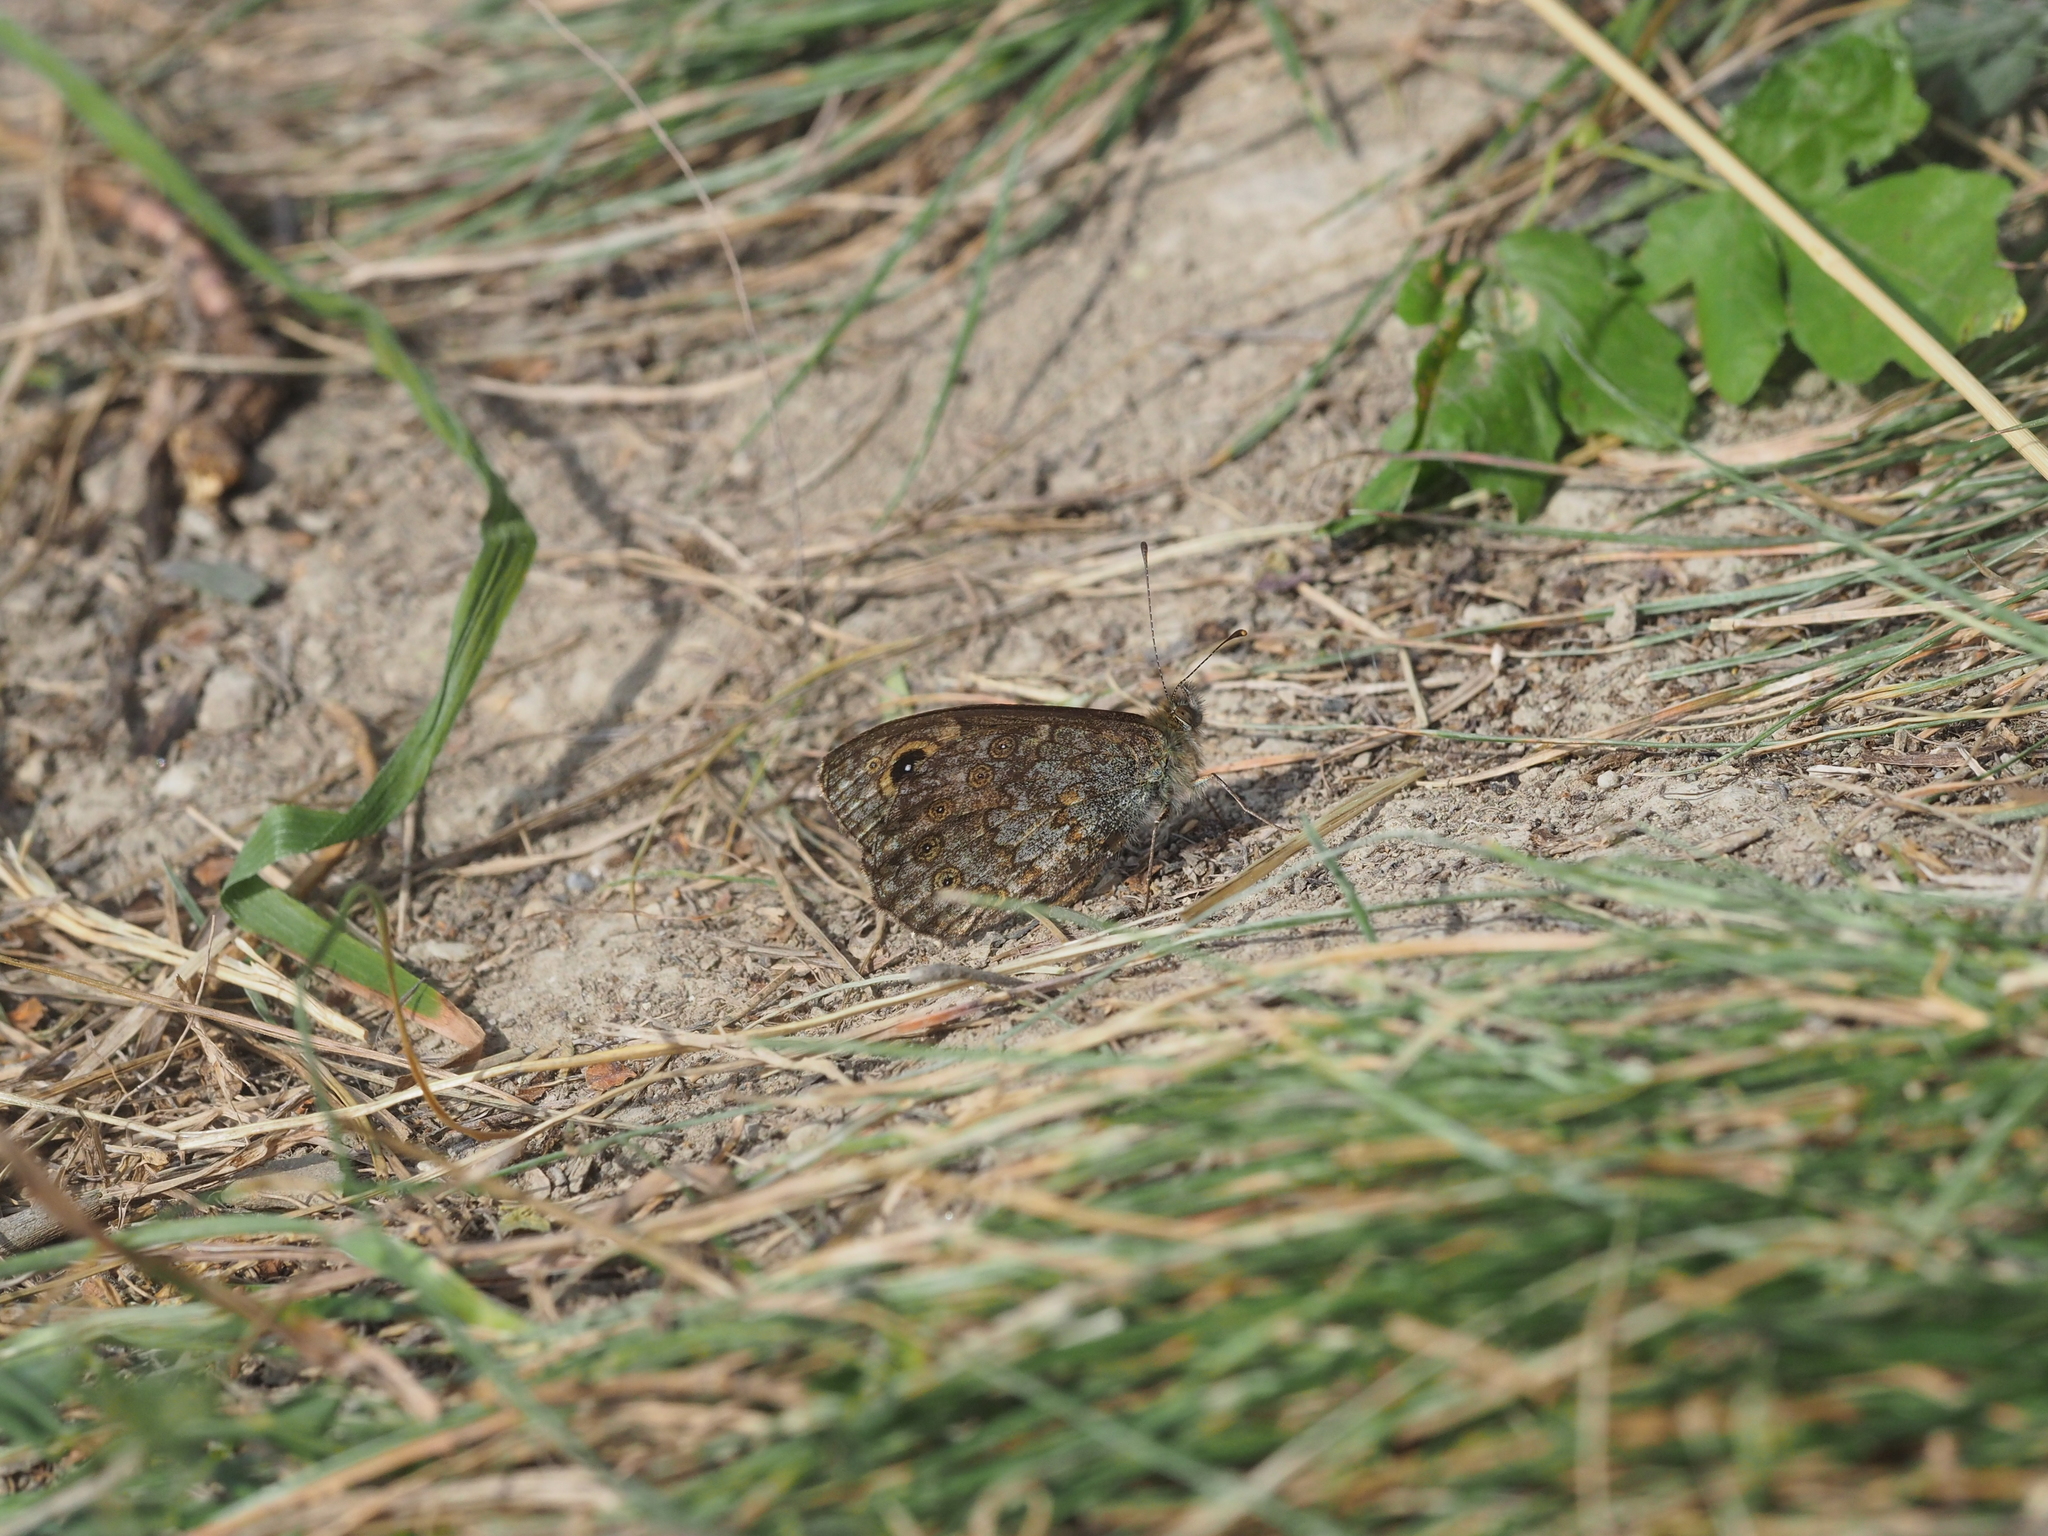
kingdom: Animalia
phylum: Arthropoda
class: Insecta
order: Lepidoptera
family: Nymphalidae
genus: Pararge
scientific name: Pararge Lasiommata megera
